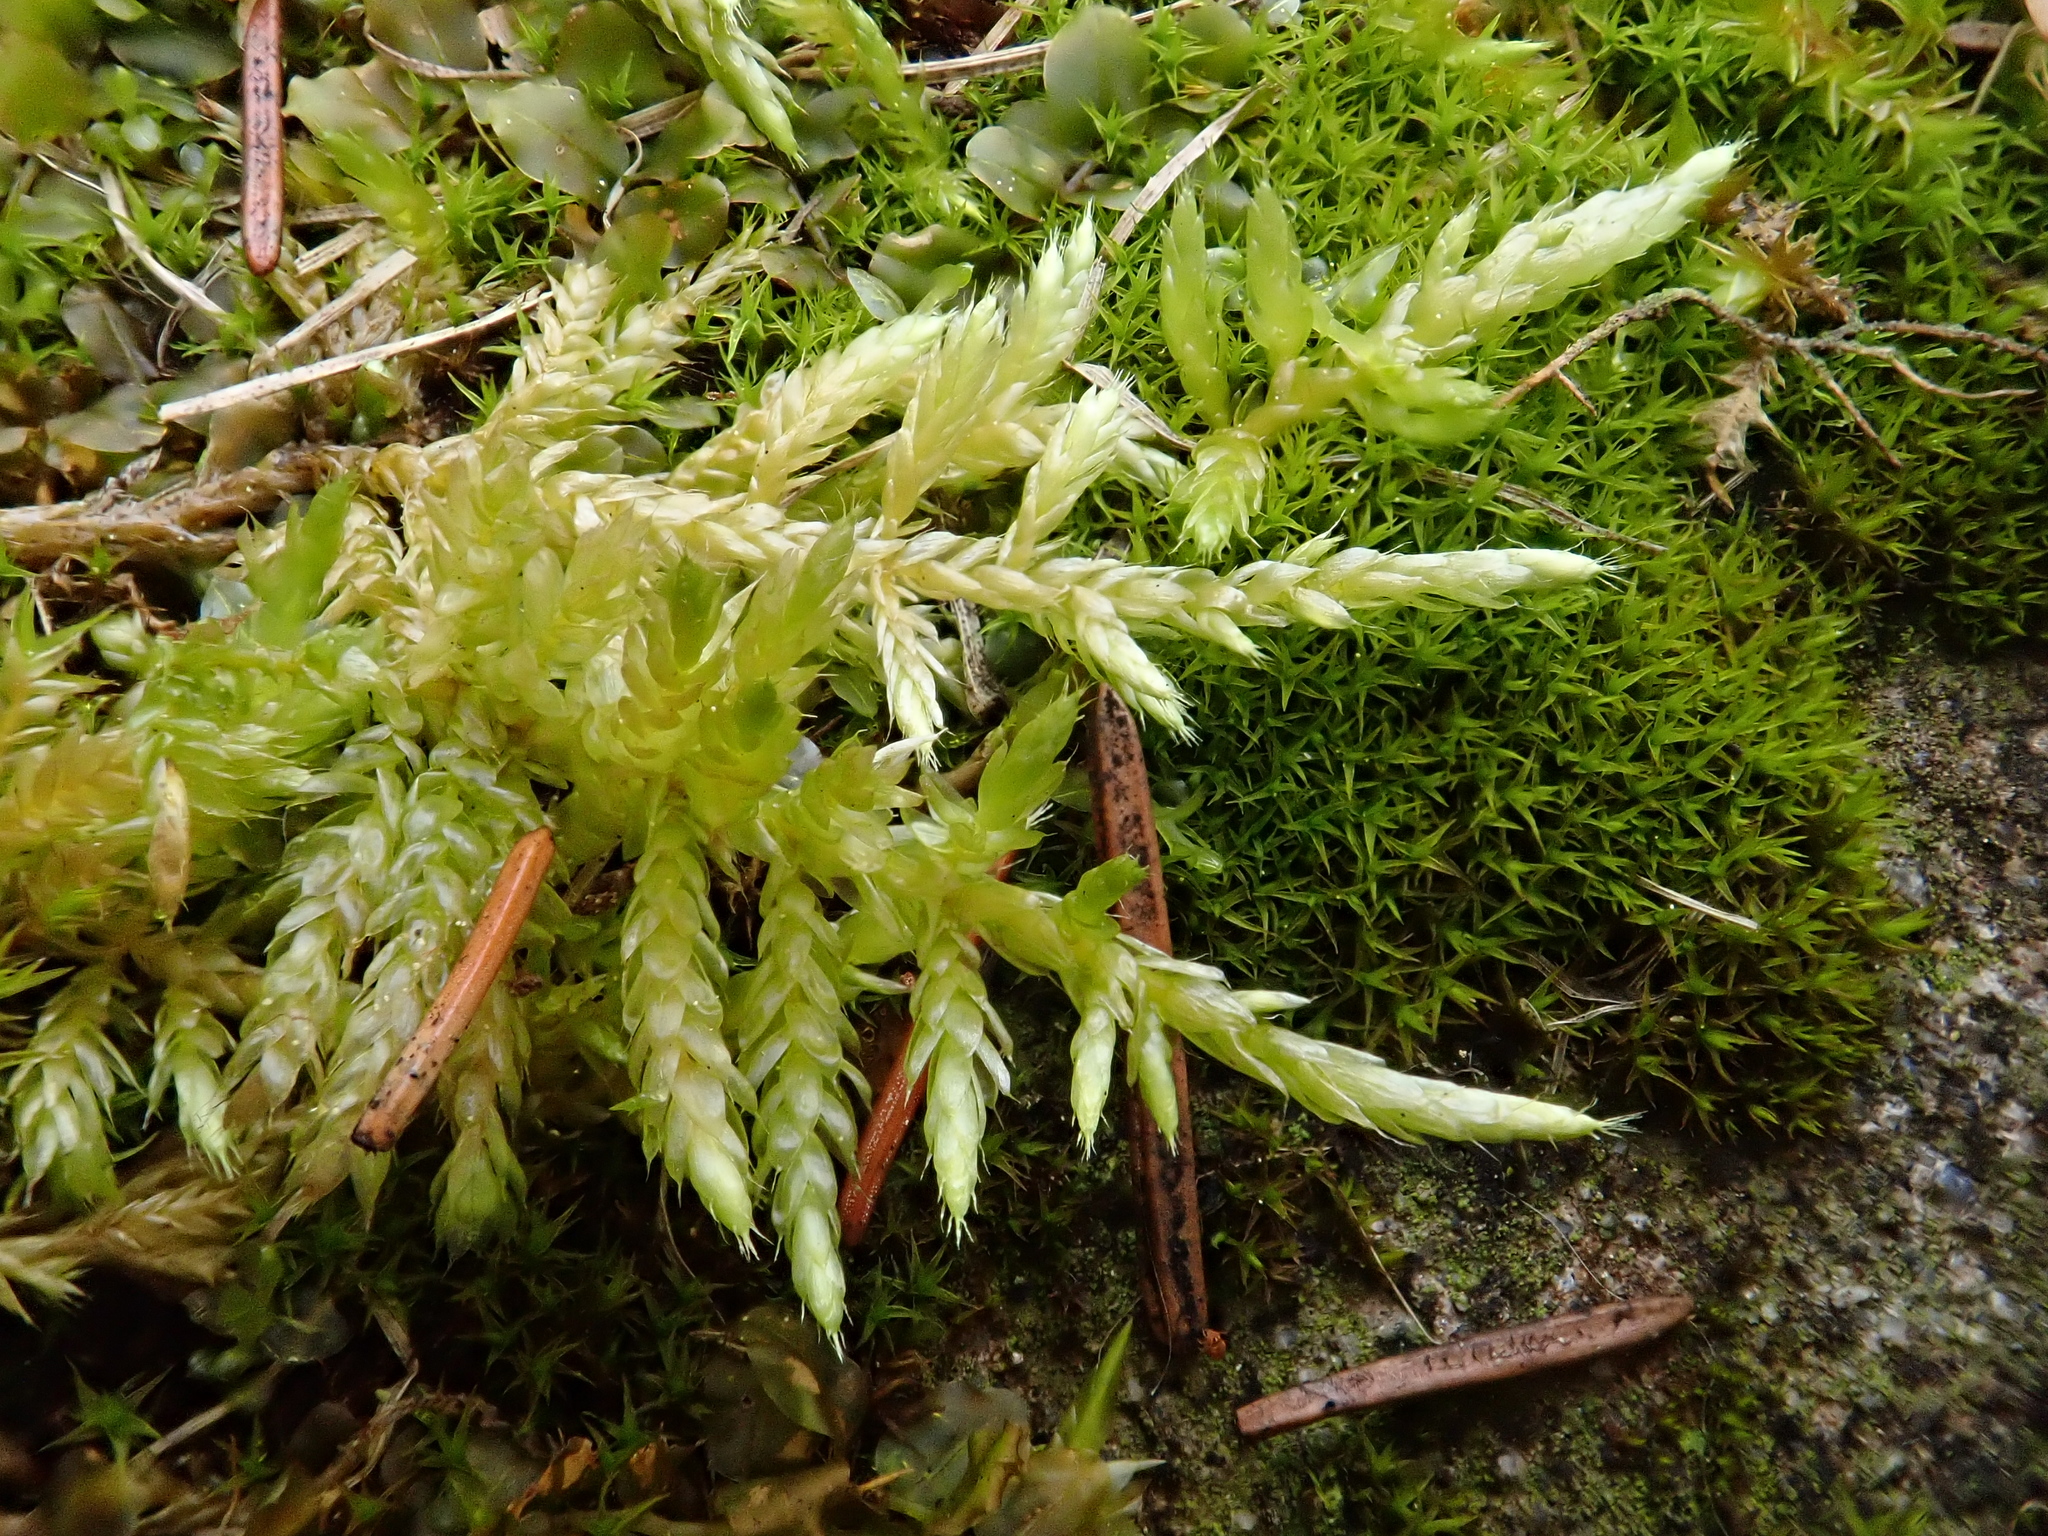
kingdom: Plantae
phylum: Bryophyta
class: Bryopsida
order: Hypnales
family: Brachytheciaceae
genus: Cirriphyllum
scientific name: Cirriphyllum piliferum
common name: Hair-pointed moss
